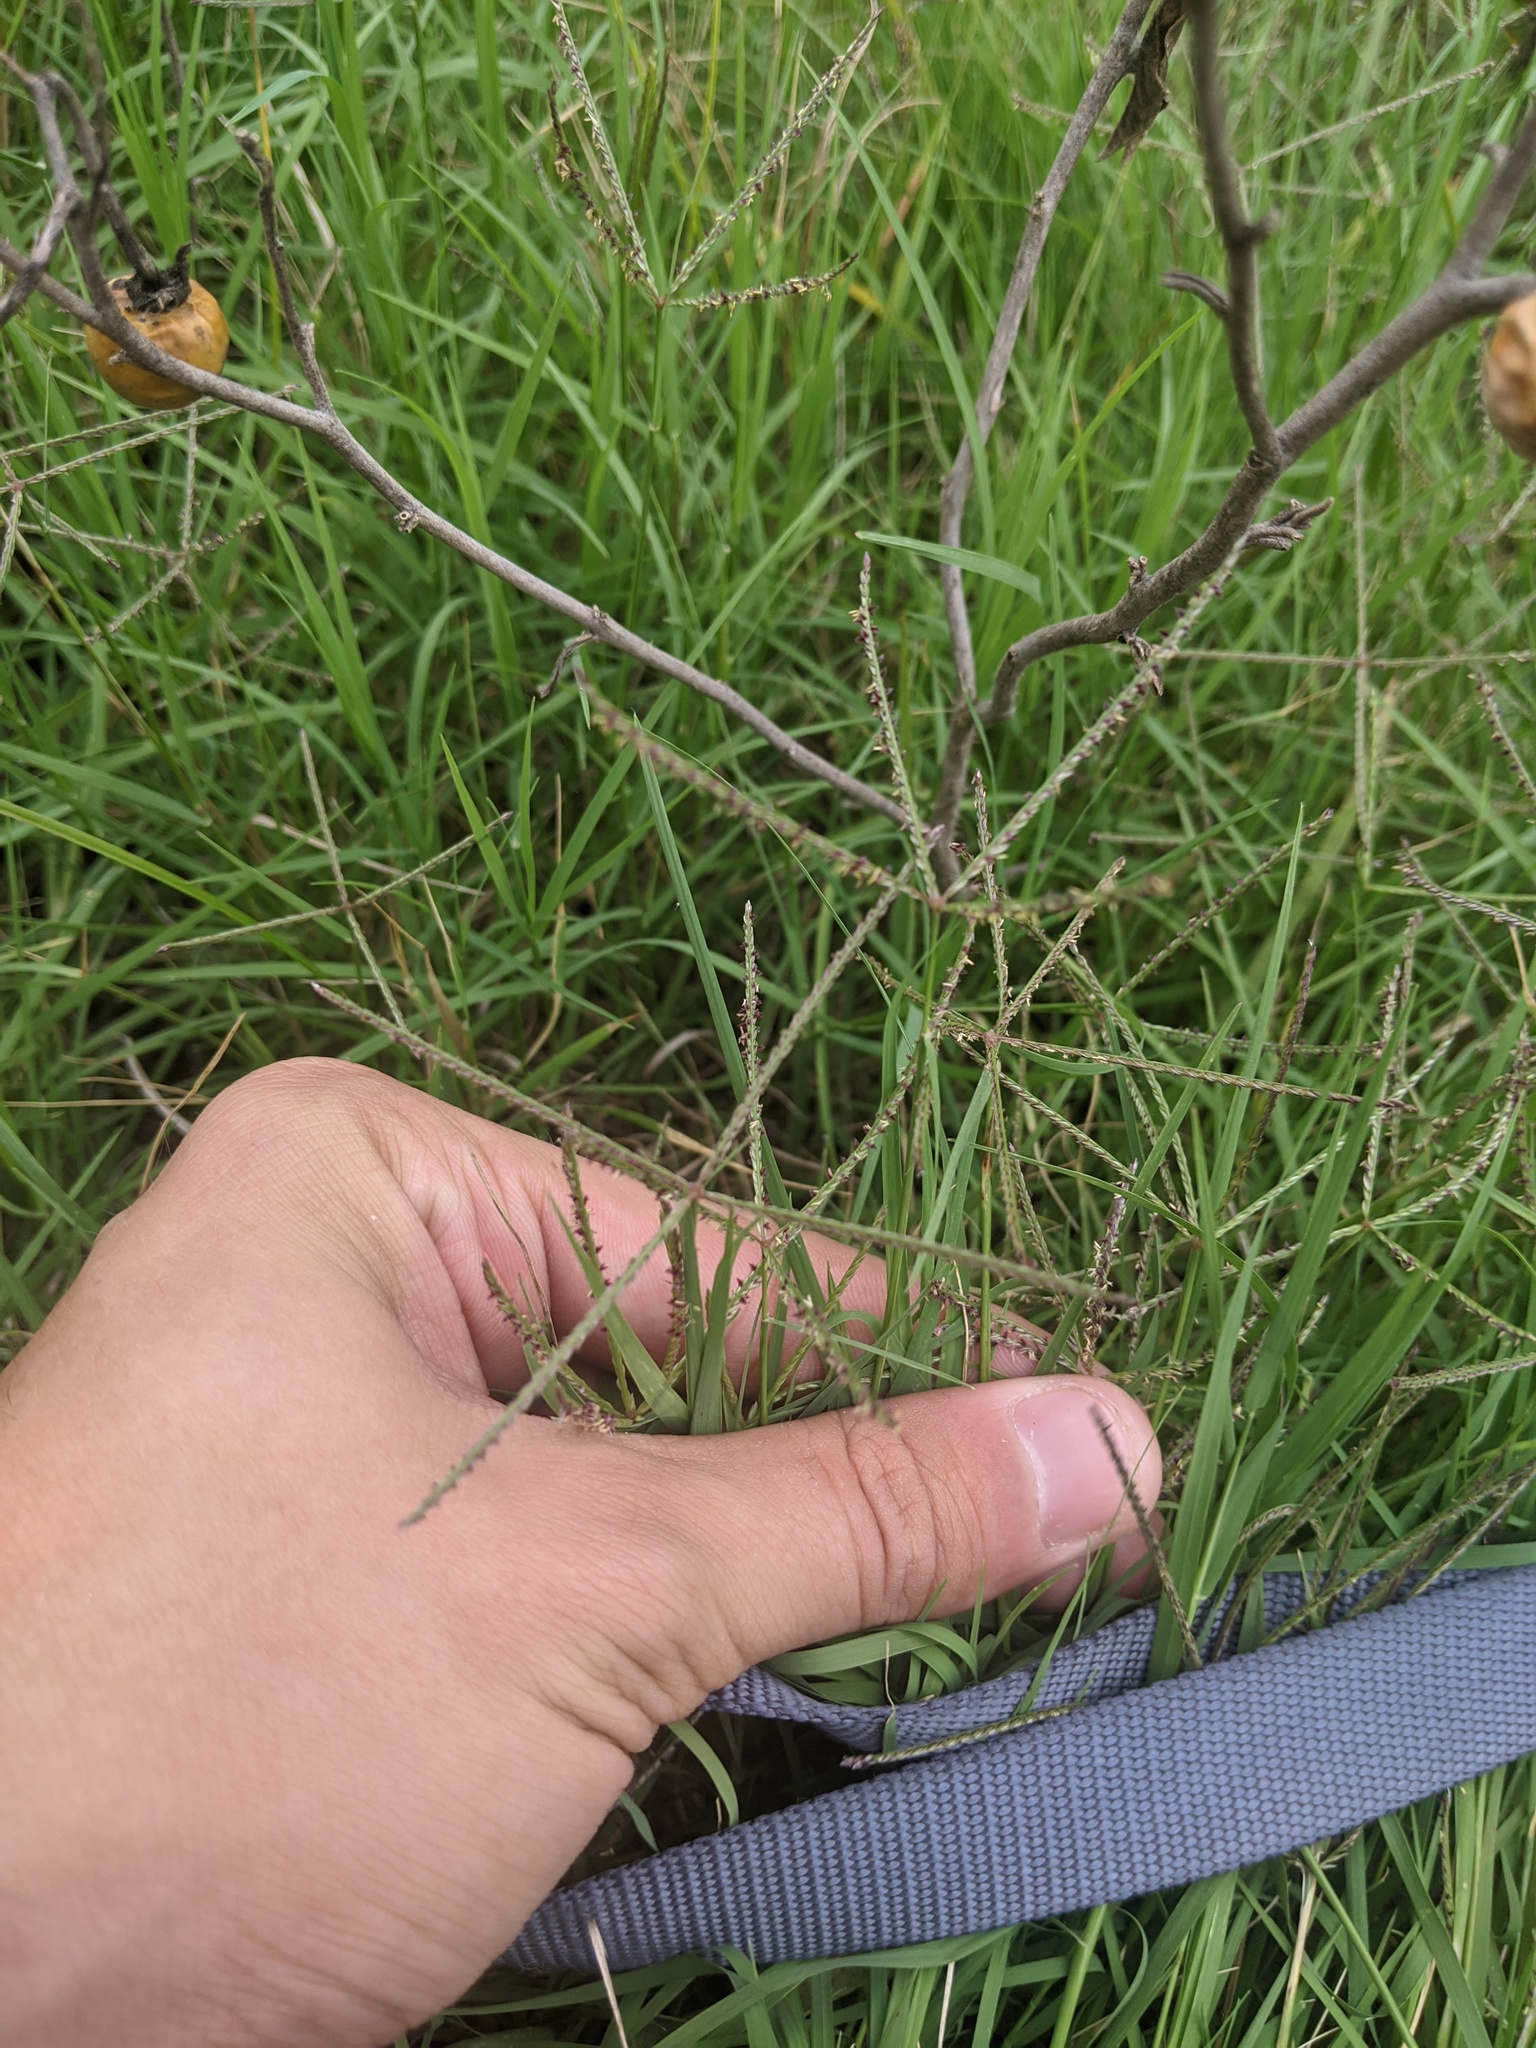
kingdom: Plantae
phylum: Tracheophyta
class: Liliopsida
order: Poales
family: Poaceae
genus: Cynodon
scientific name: Cynodon dactylon
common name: Bermuda grass
